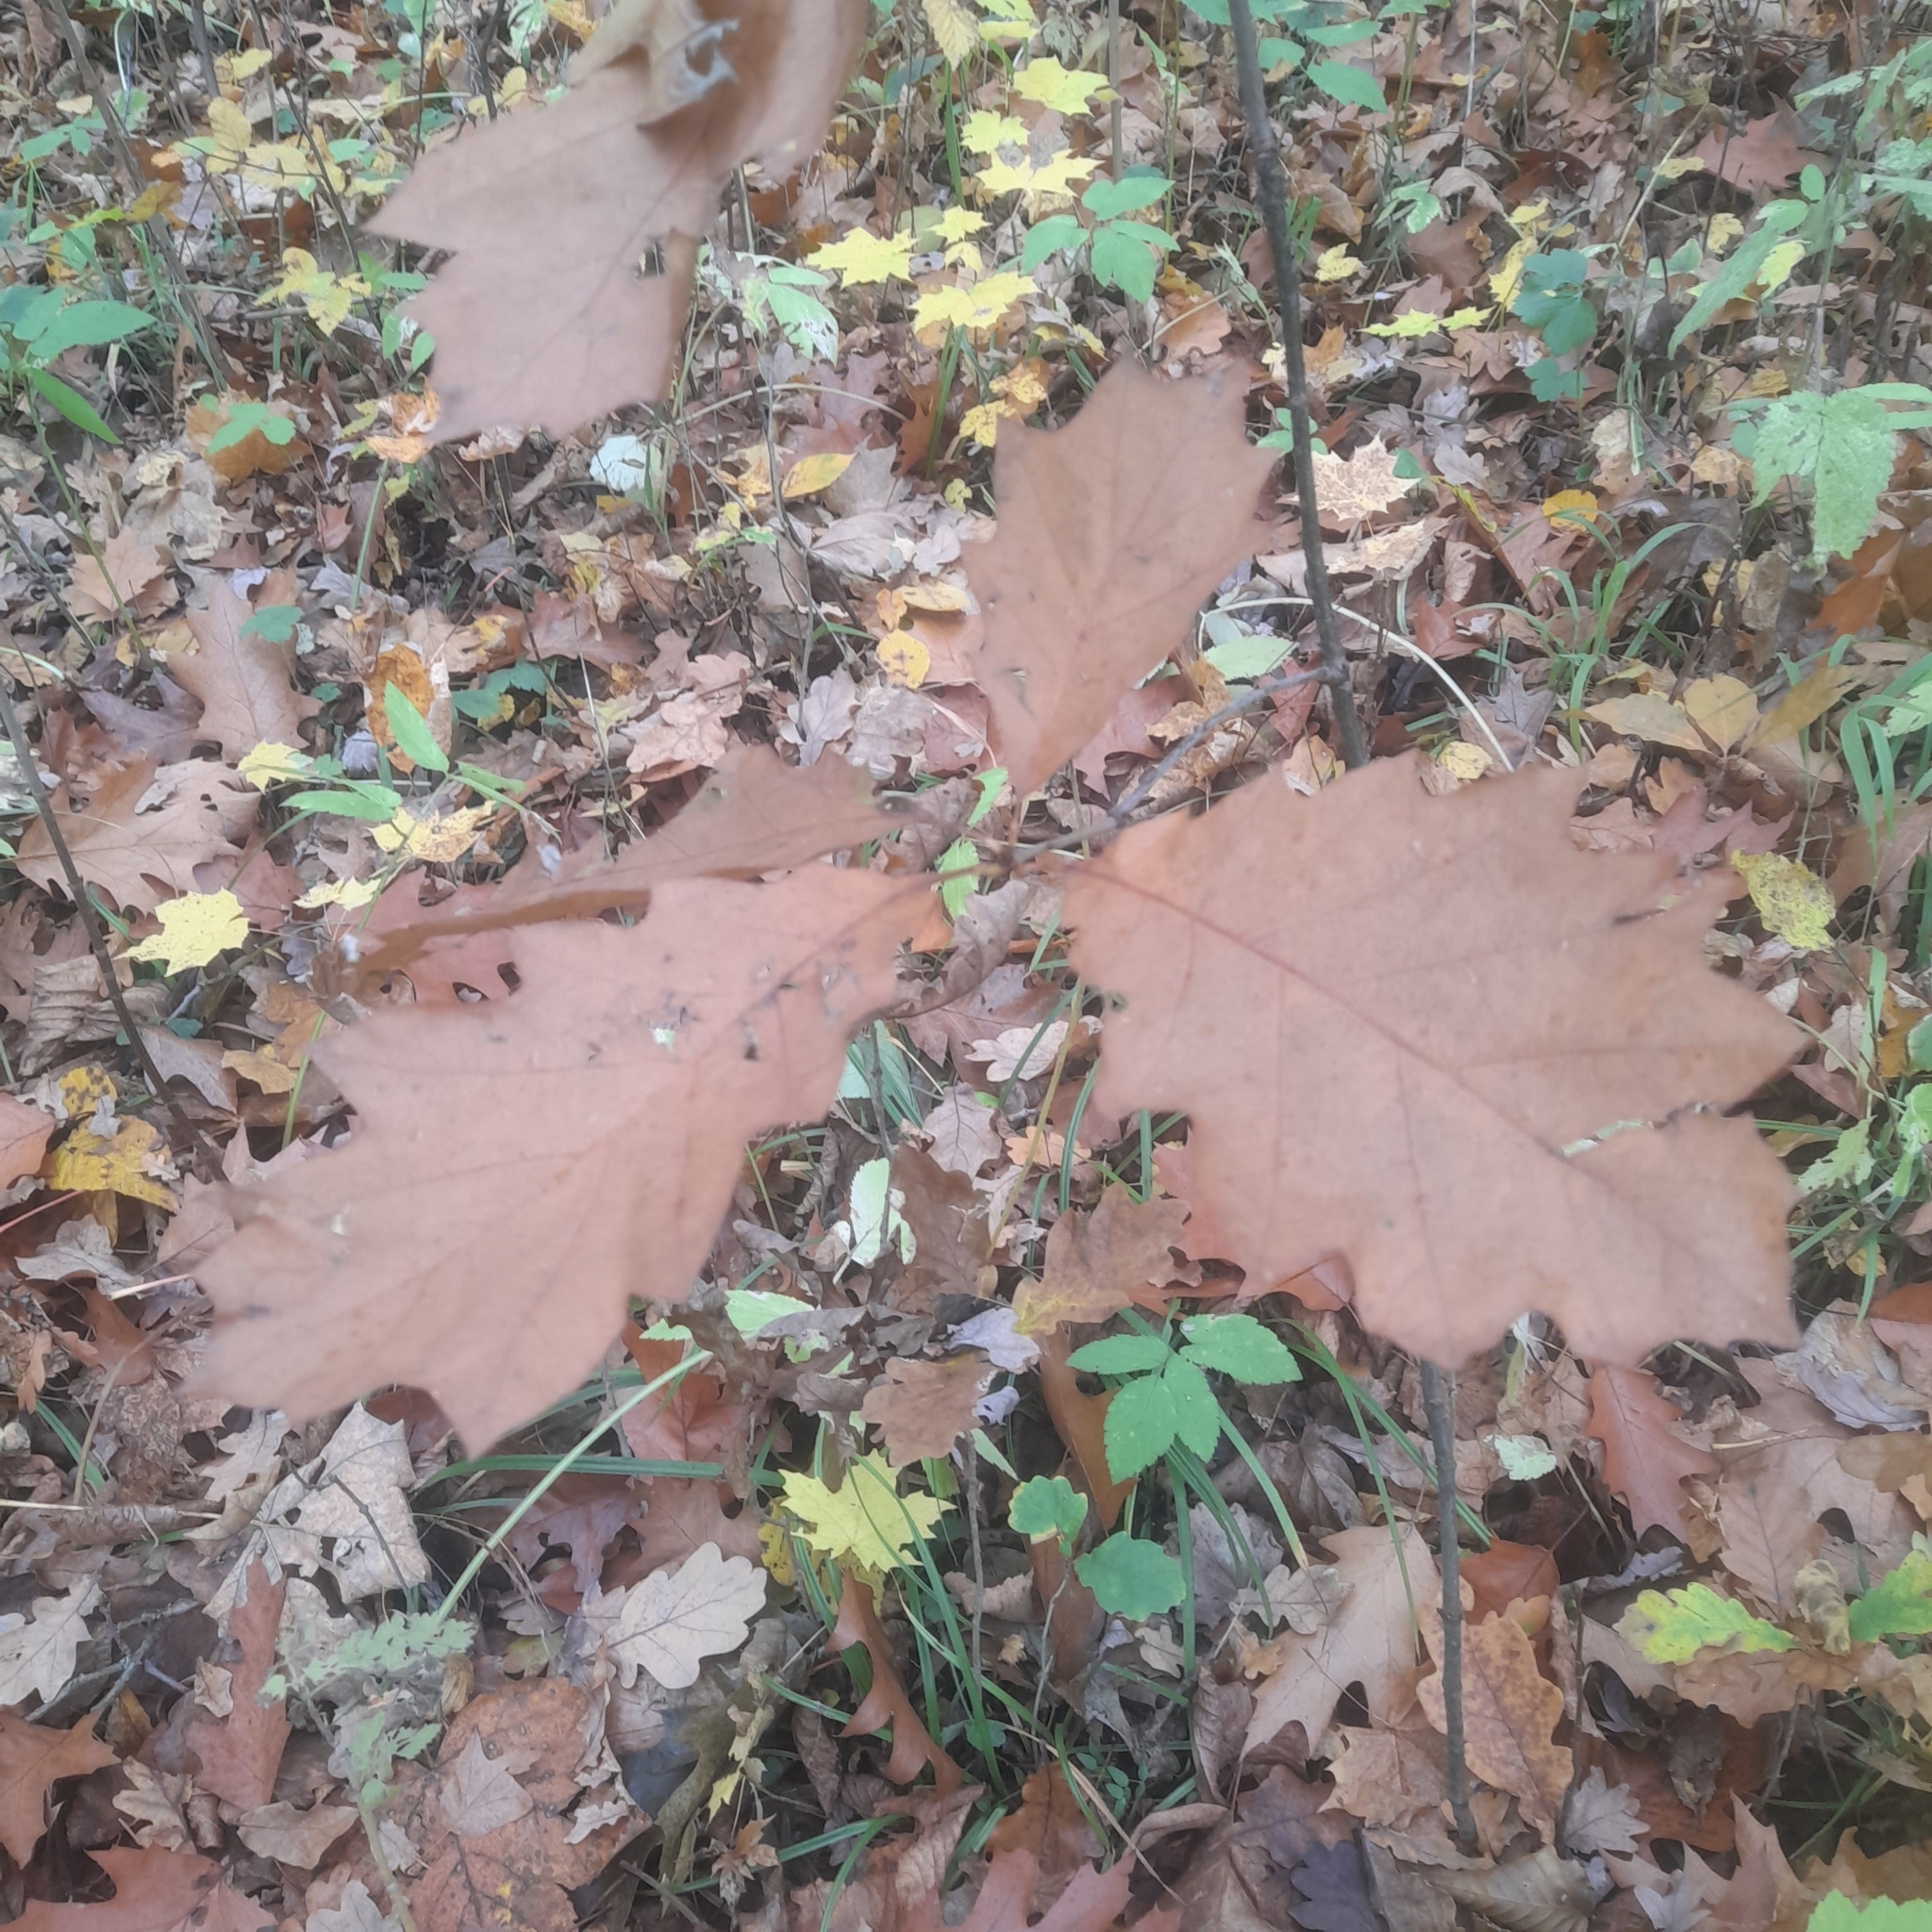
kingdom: Plantae
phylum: Tracheophyta
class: Magnoliopsida
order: Fagales
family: Fagaceae
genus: Quercus
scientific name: Quercus rubra
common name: Red oak
